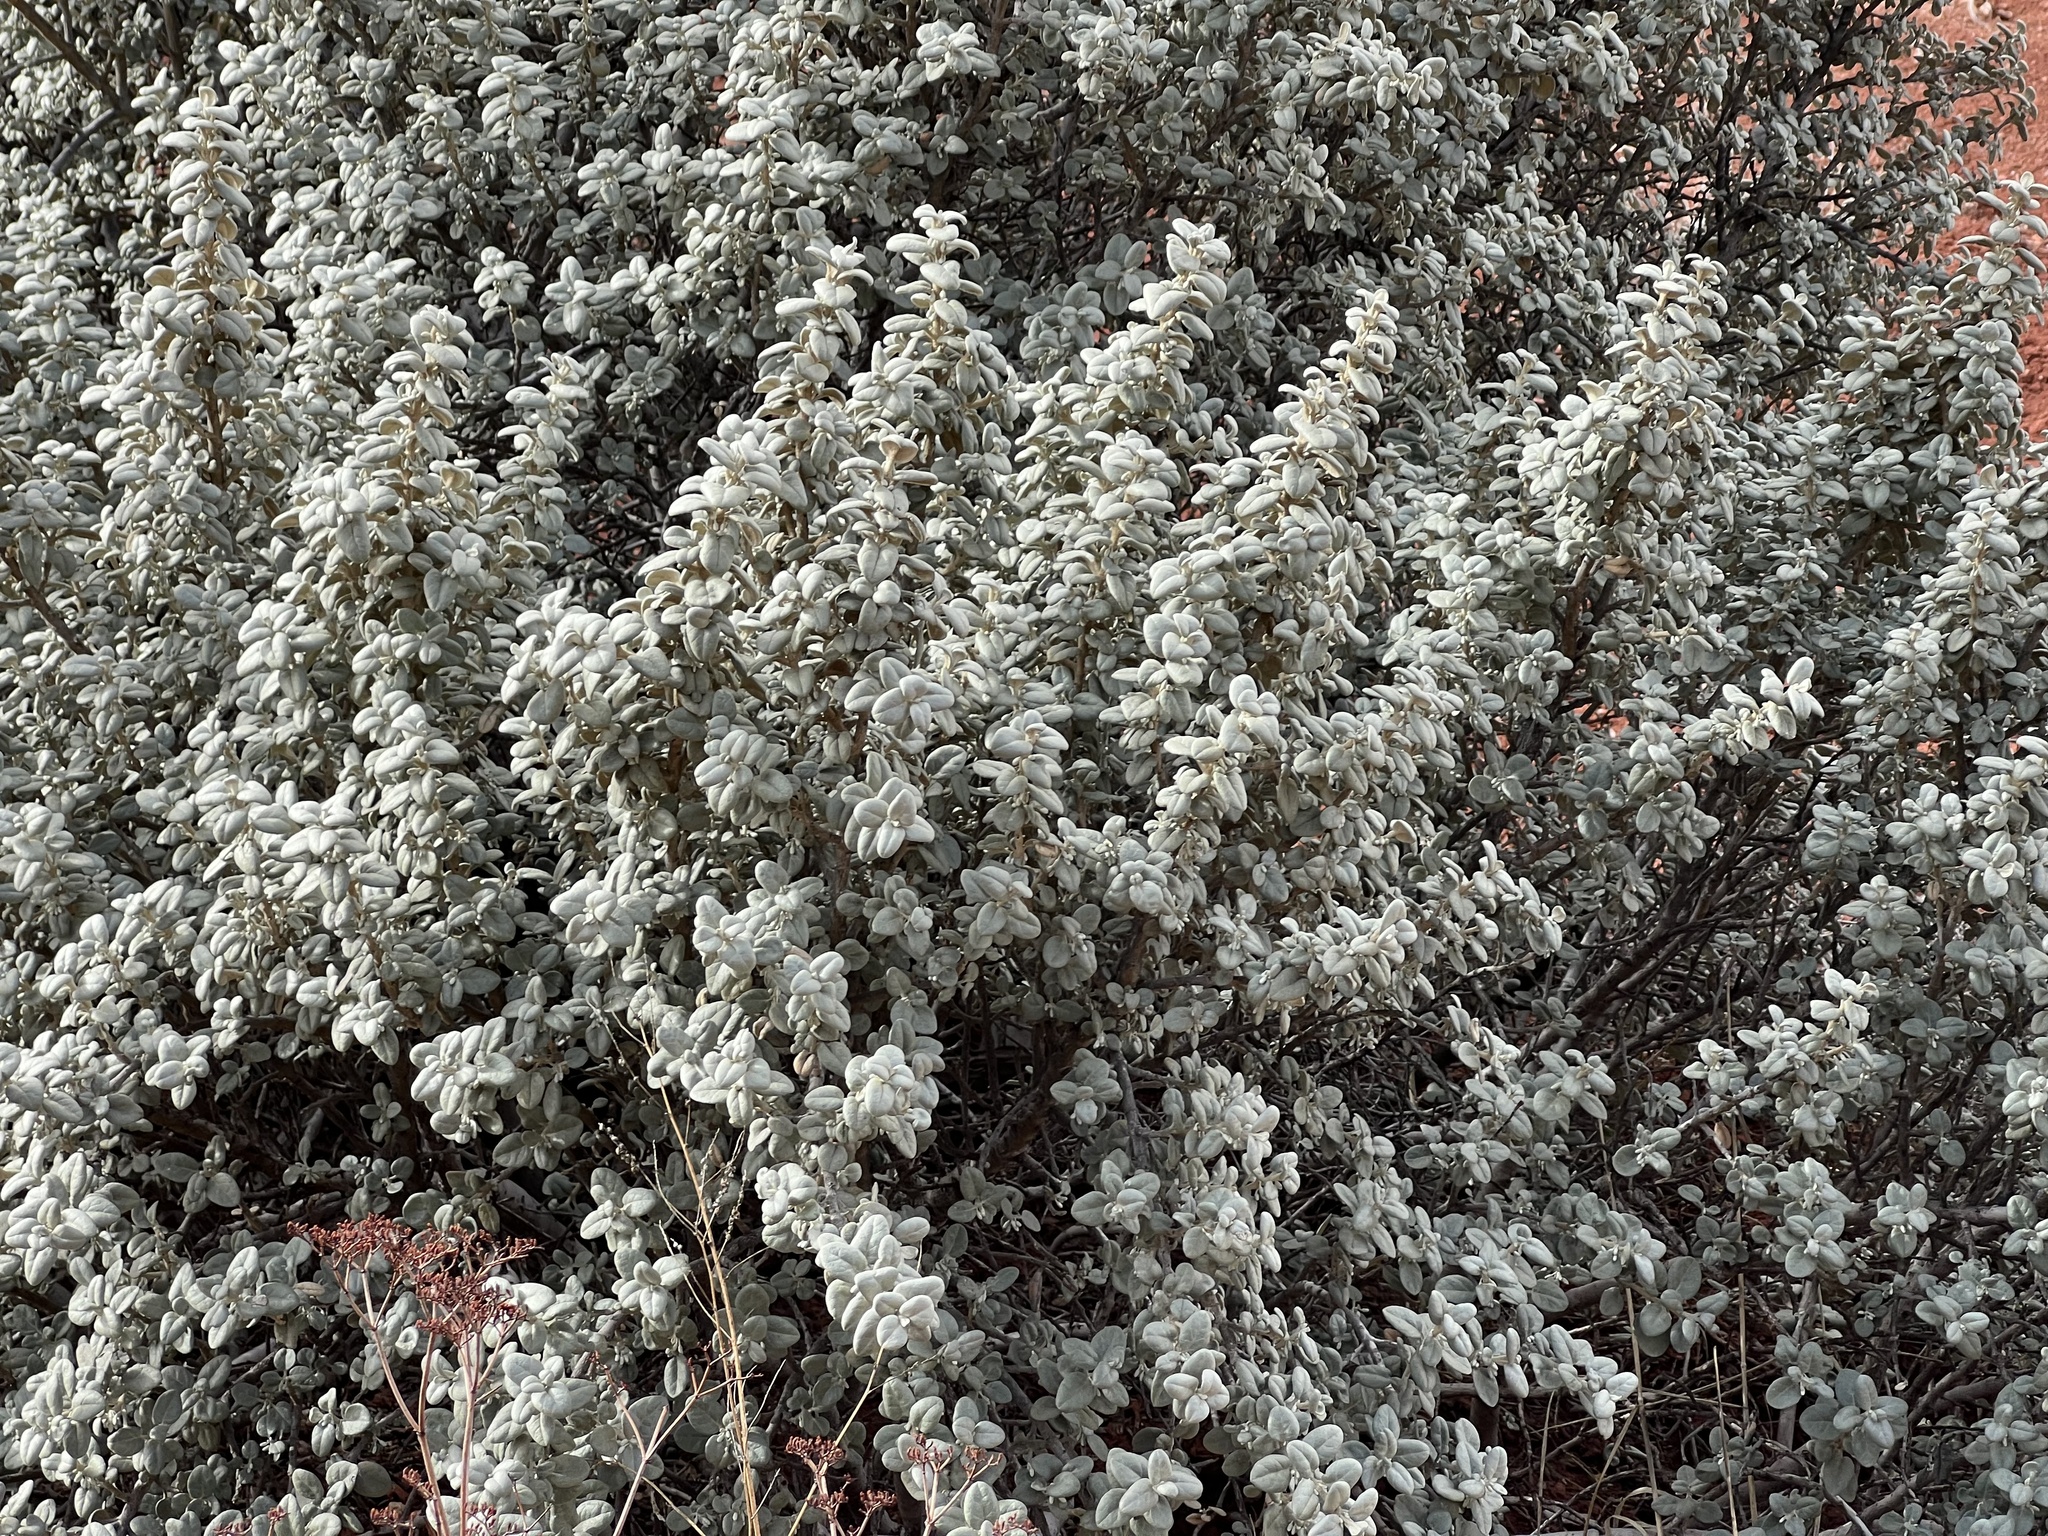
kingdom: Plantae
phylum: Tracheophyta
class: Magnoliopsida
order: Rosales
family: Elaeagnaceae
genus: Shepherdia
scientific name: Shepherdia rotundifolia
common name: Silverscale
